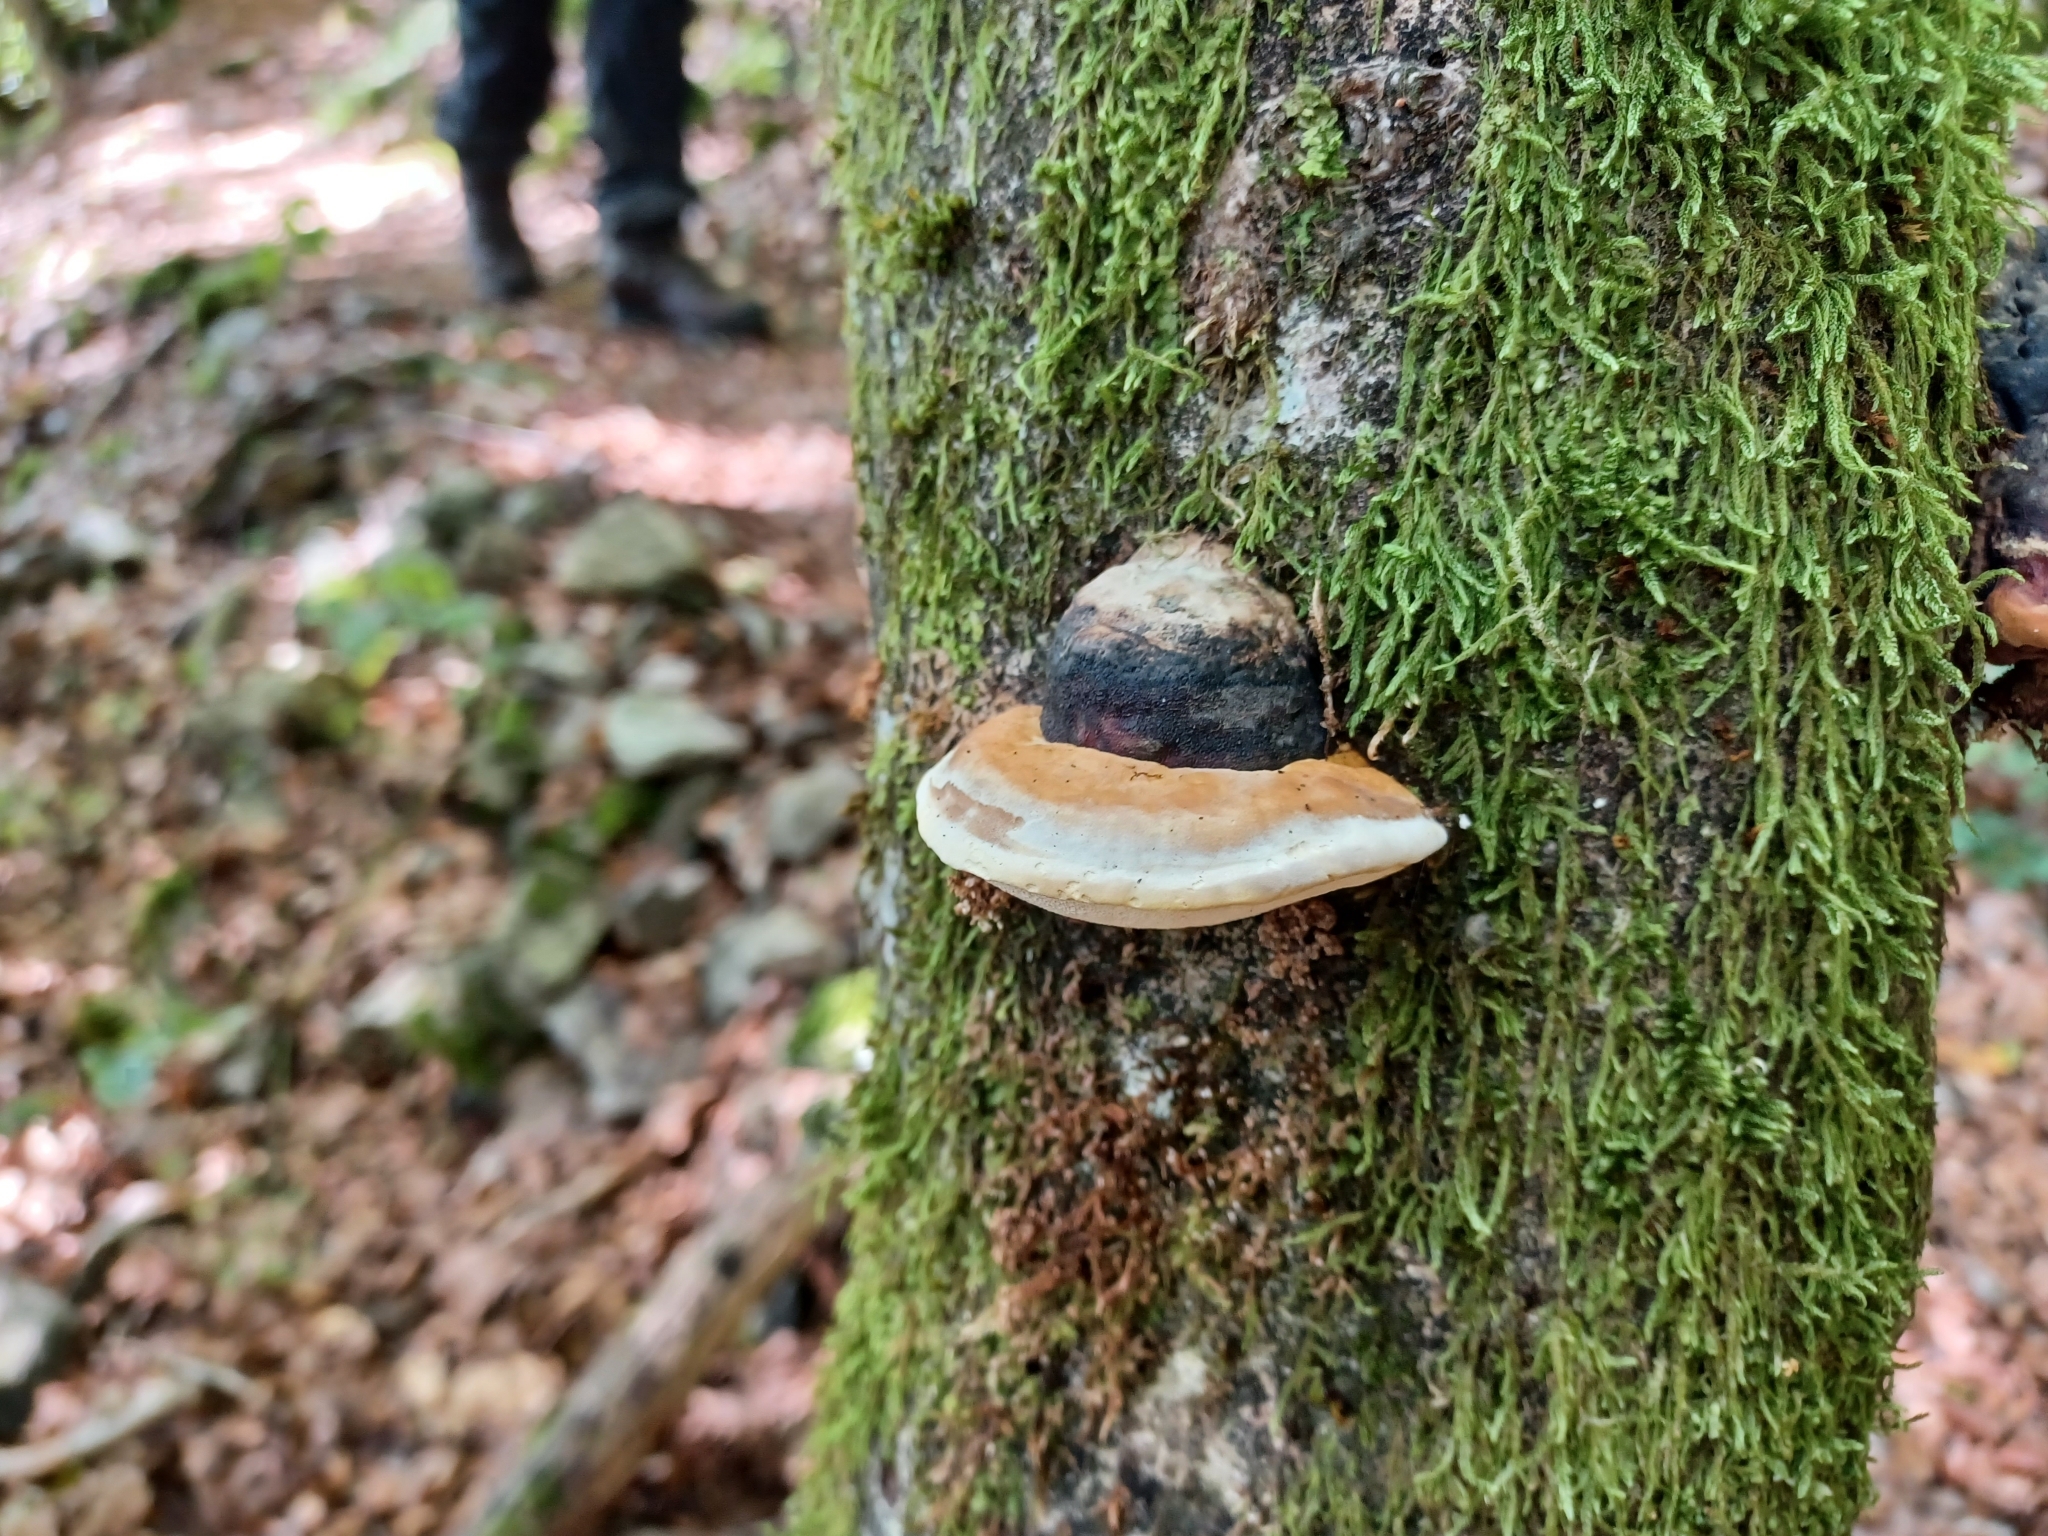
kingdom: Fungi
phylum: Basidiomycota
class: Agaricomycetes
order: Polyporales
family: Fomitopsidaceae
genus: Fomitopsis
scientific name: Fomitopsis pinicola
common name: Red-belted bracket
